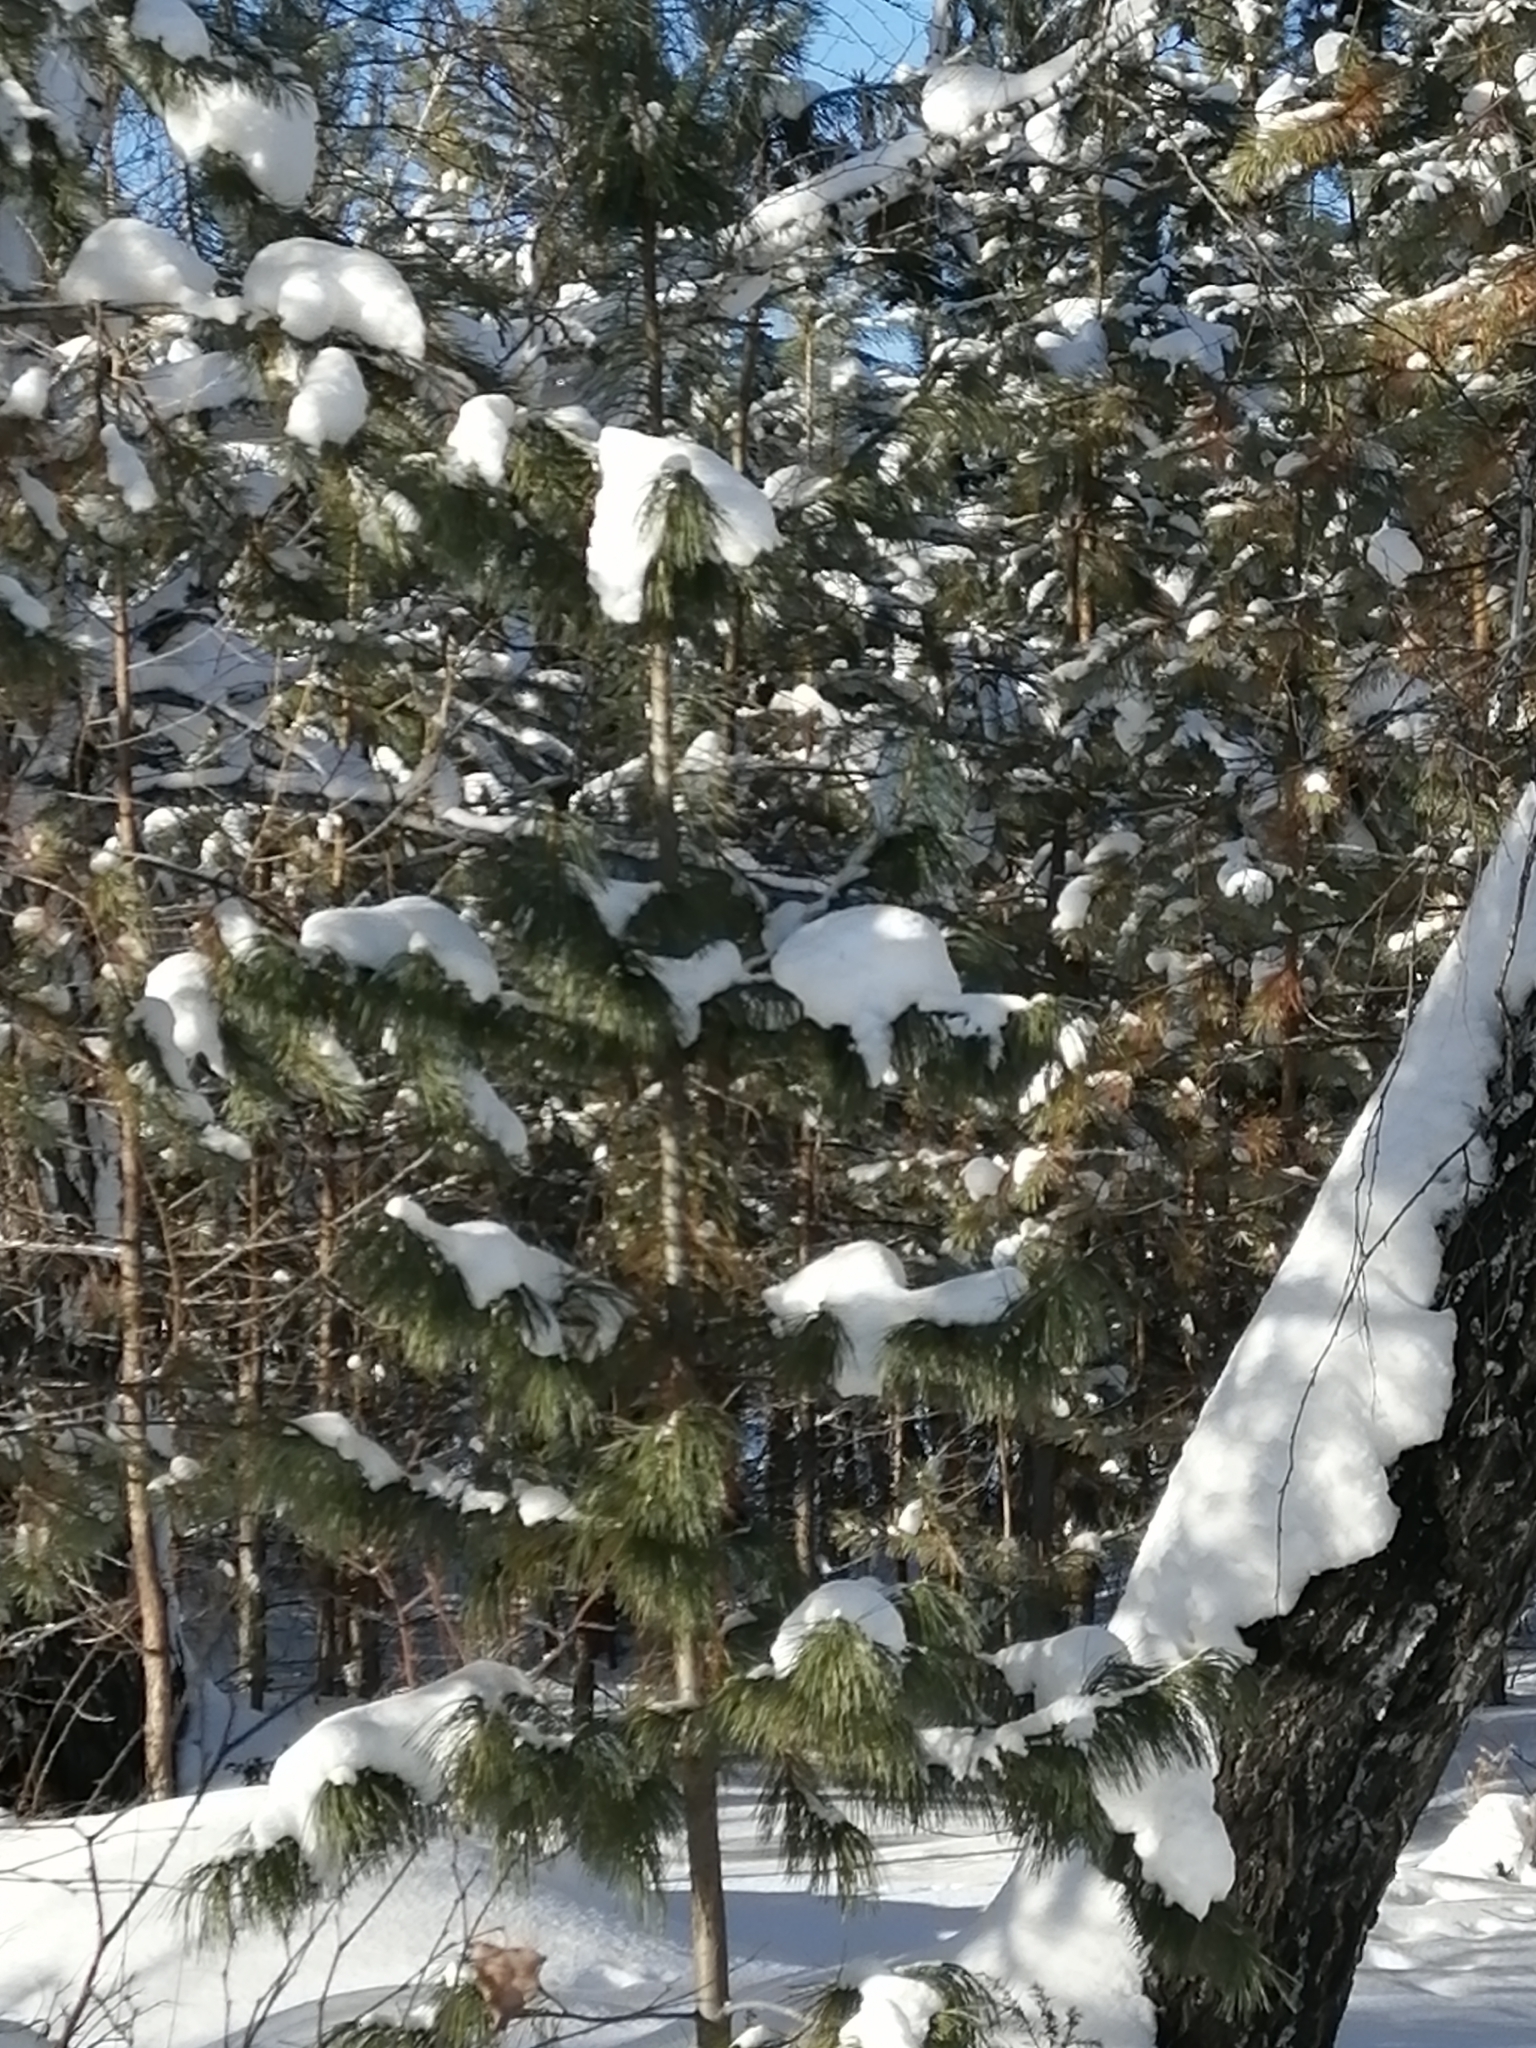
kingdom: Plantae
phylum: Tracheophyta
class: Pinopsida
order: Pinales
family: Pinaceae
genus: Pinus
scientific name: Pinus sibirica
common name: Siberian pine
